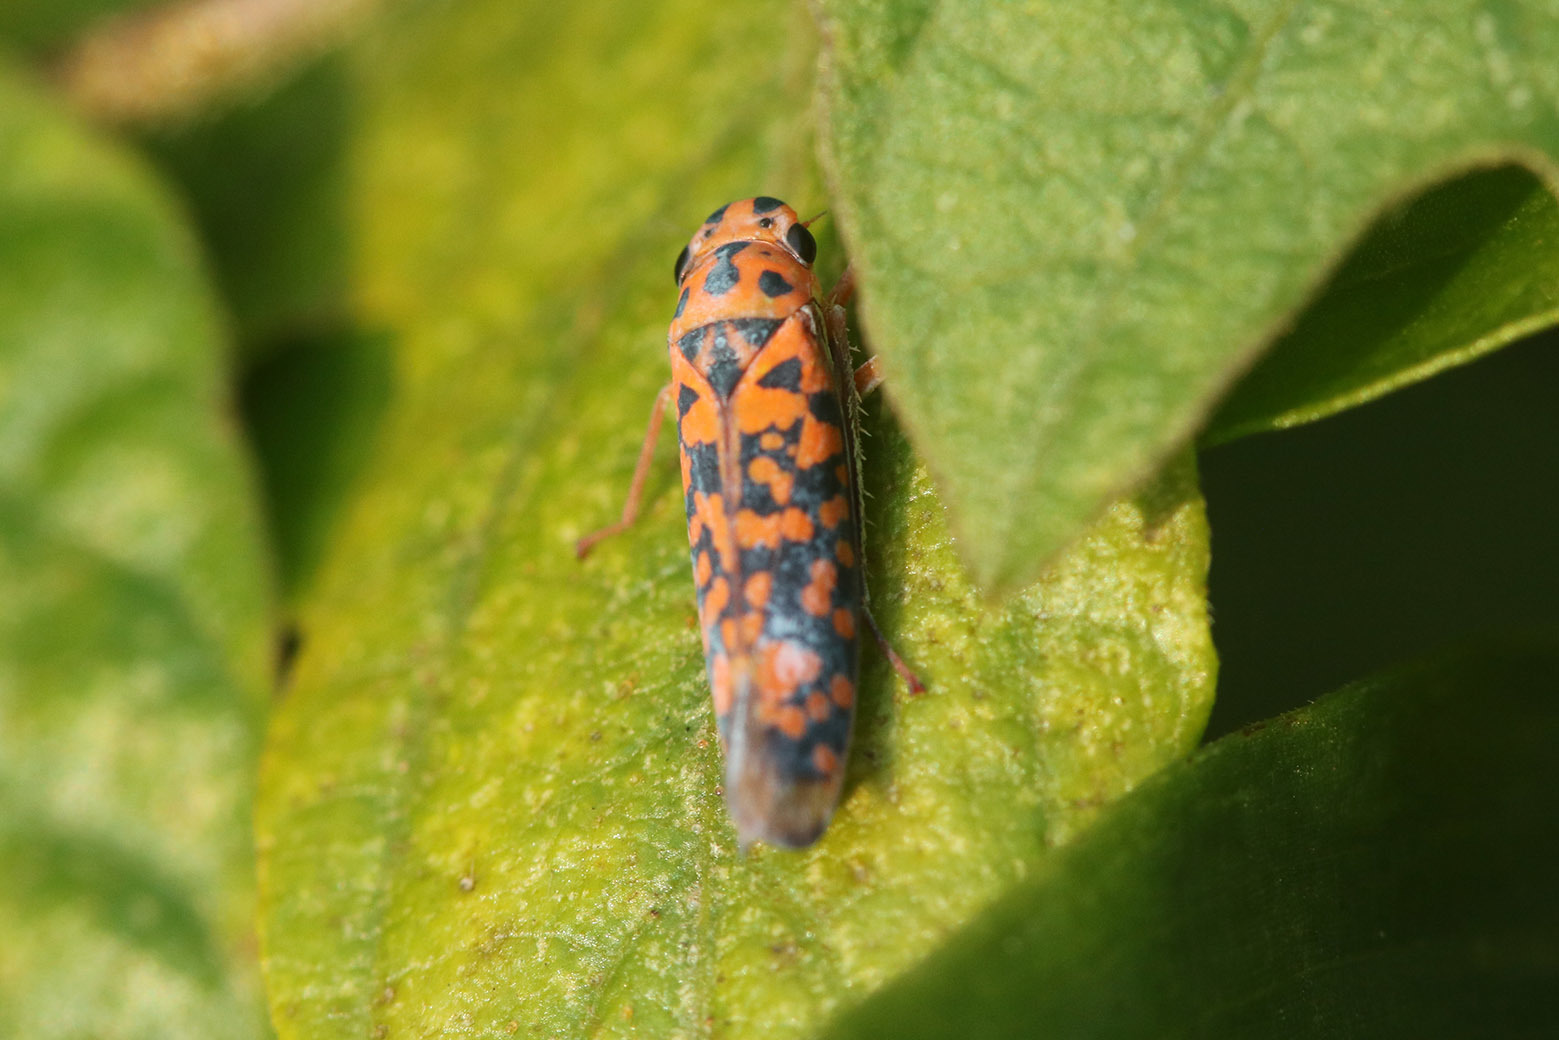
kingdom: Animalia
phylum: Arthropoda
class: Insecta
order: Hemiptera
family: Cicadellidae
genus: Pawiloma
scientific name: Pawiloma victima
